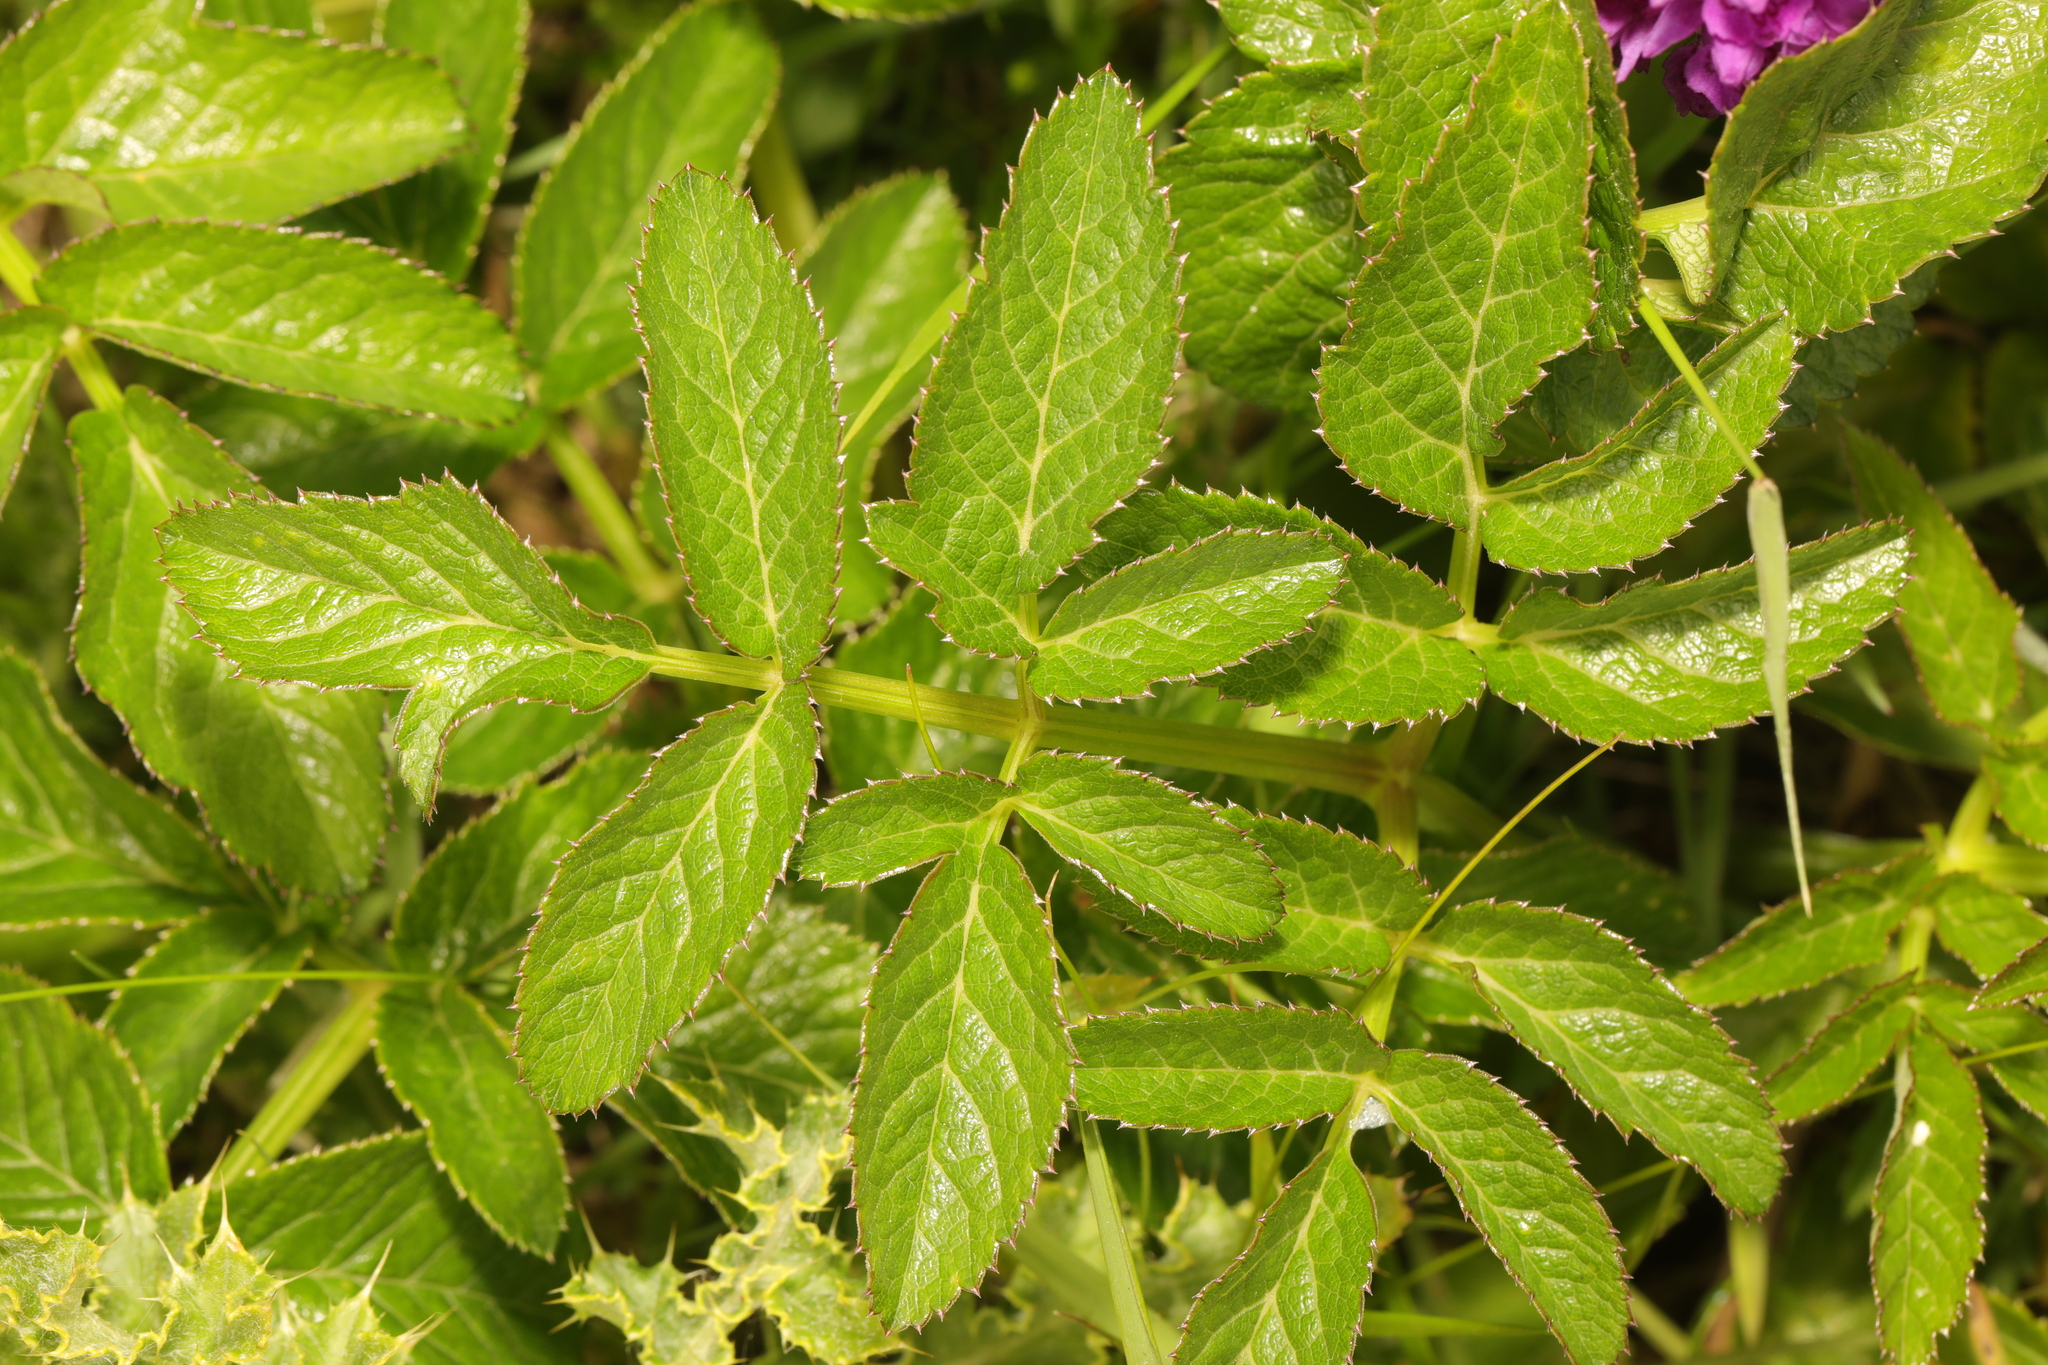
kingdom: Plantae
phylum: Tracheophyta
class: Magnoliopsida
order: Apiales
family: Apiaceae
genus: Angelica
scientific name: Angelica sylvestris
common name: Wild angelica
